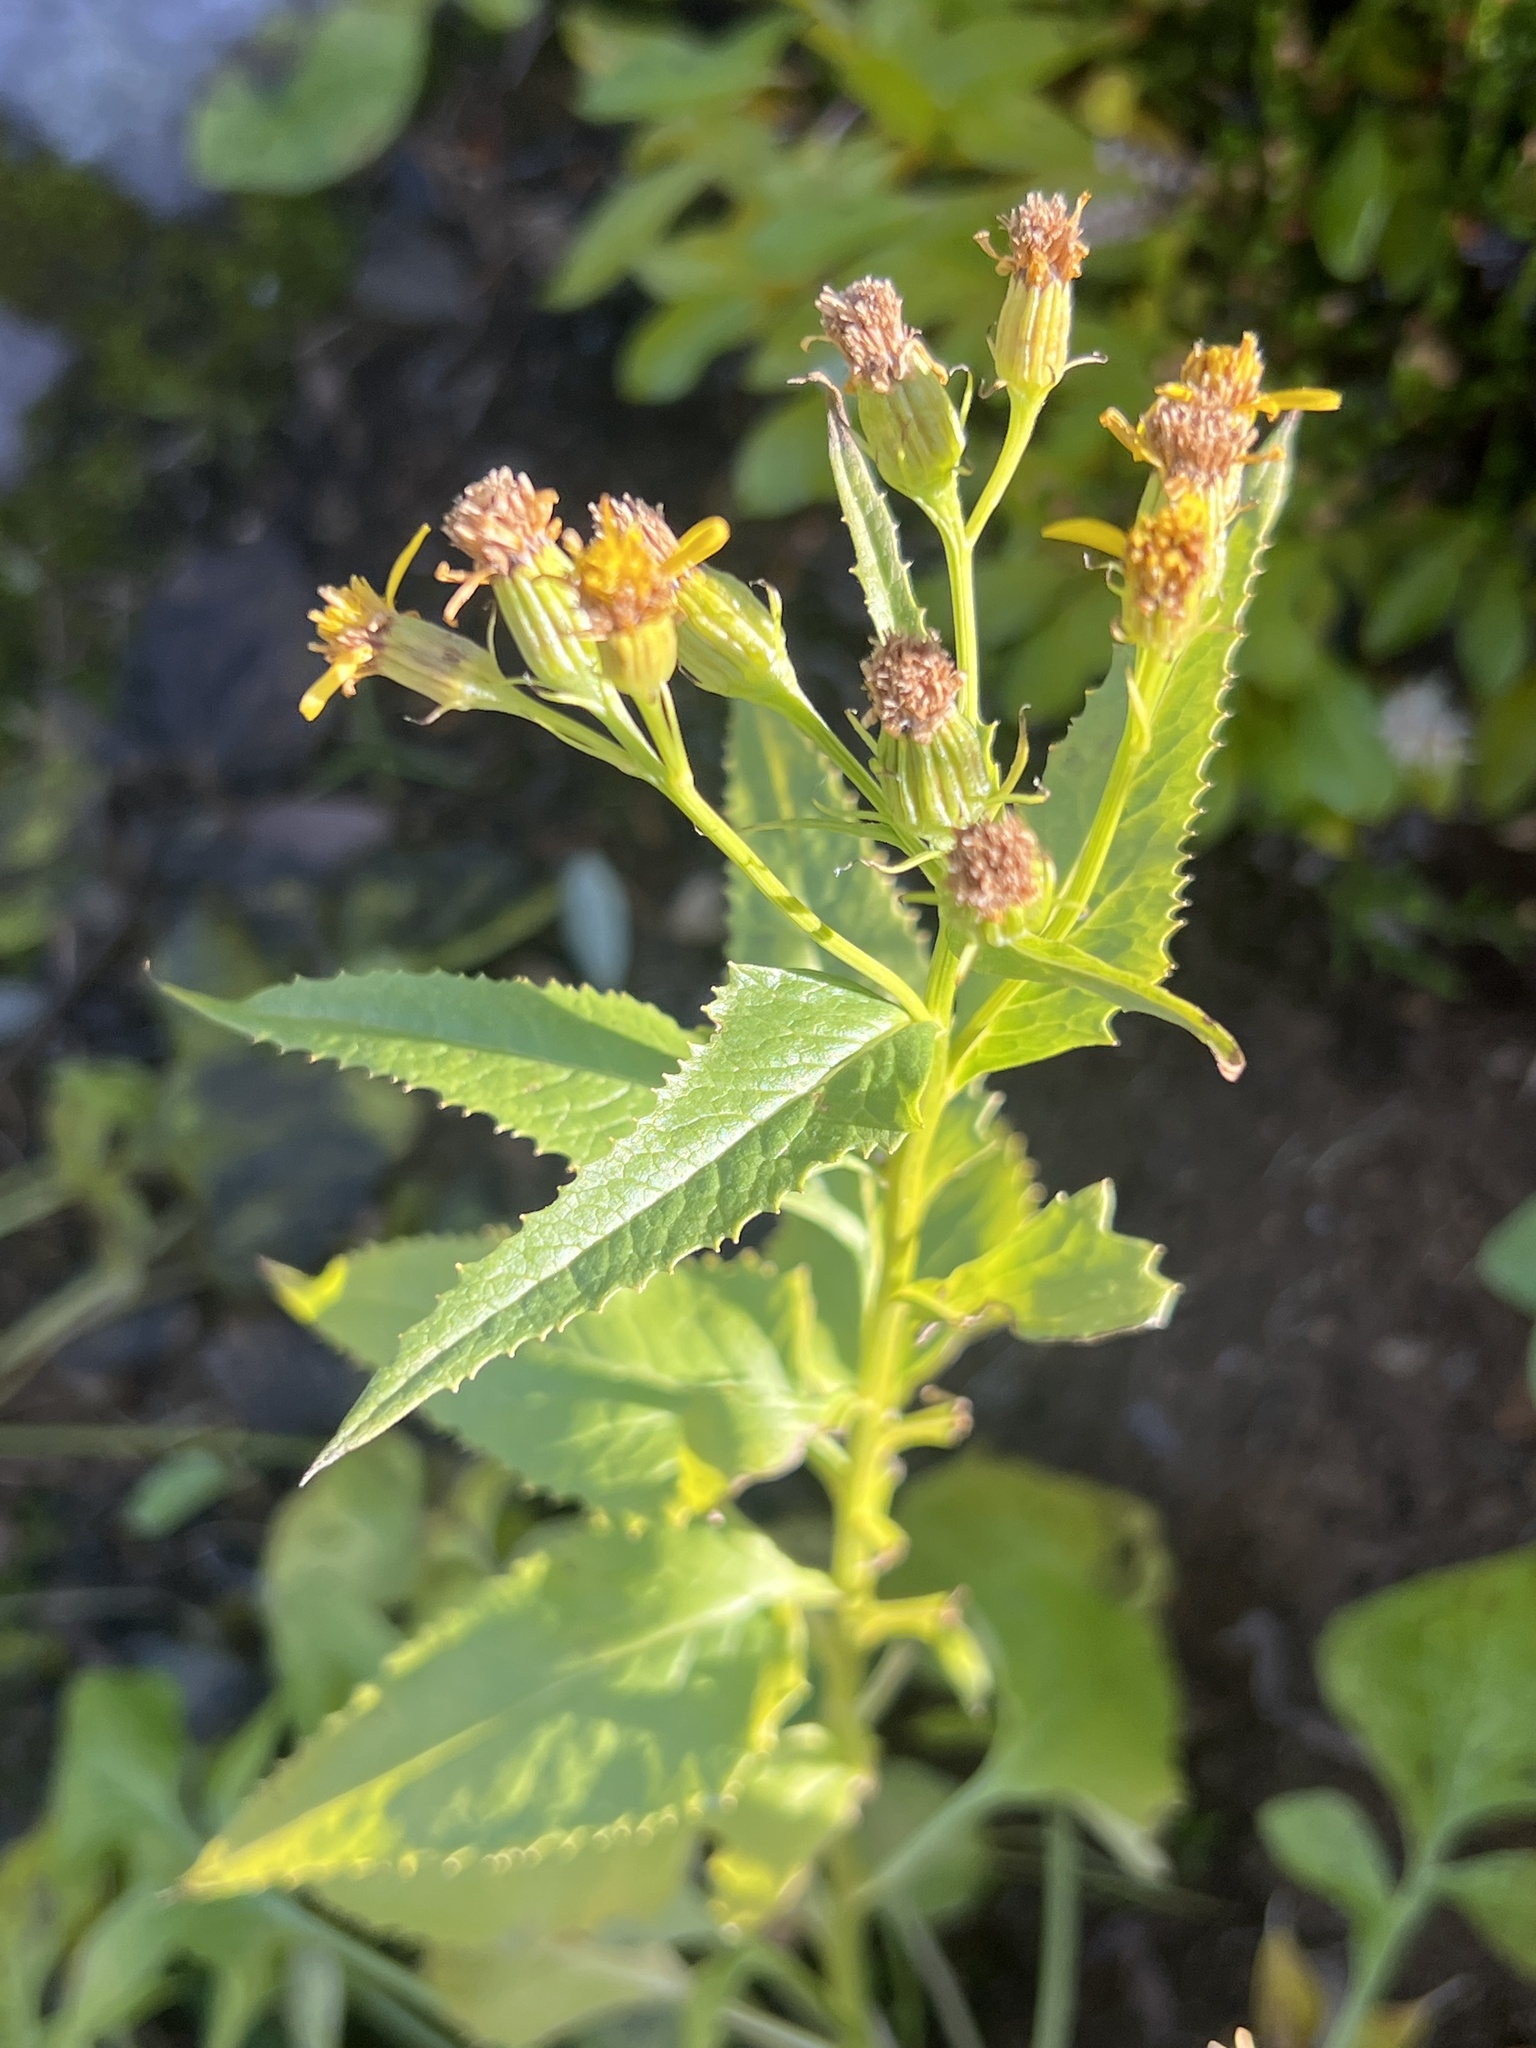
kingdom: Plantae
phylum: Tracheophyta
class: Magnoliopsida
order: Asterales
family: Asteraceae
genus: Senecio
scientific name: Senecio triangularis
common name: Arrowleaf butterweed
